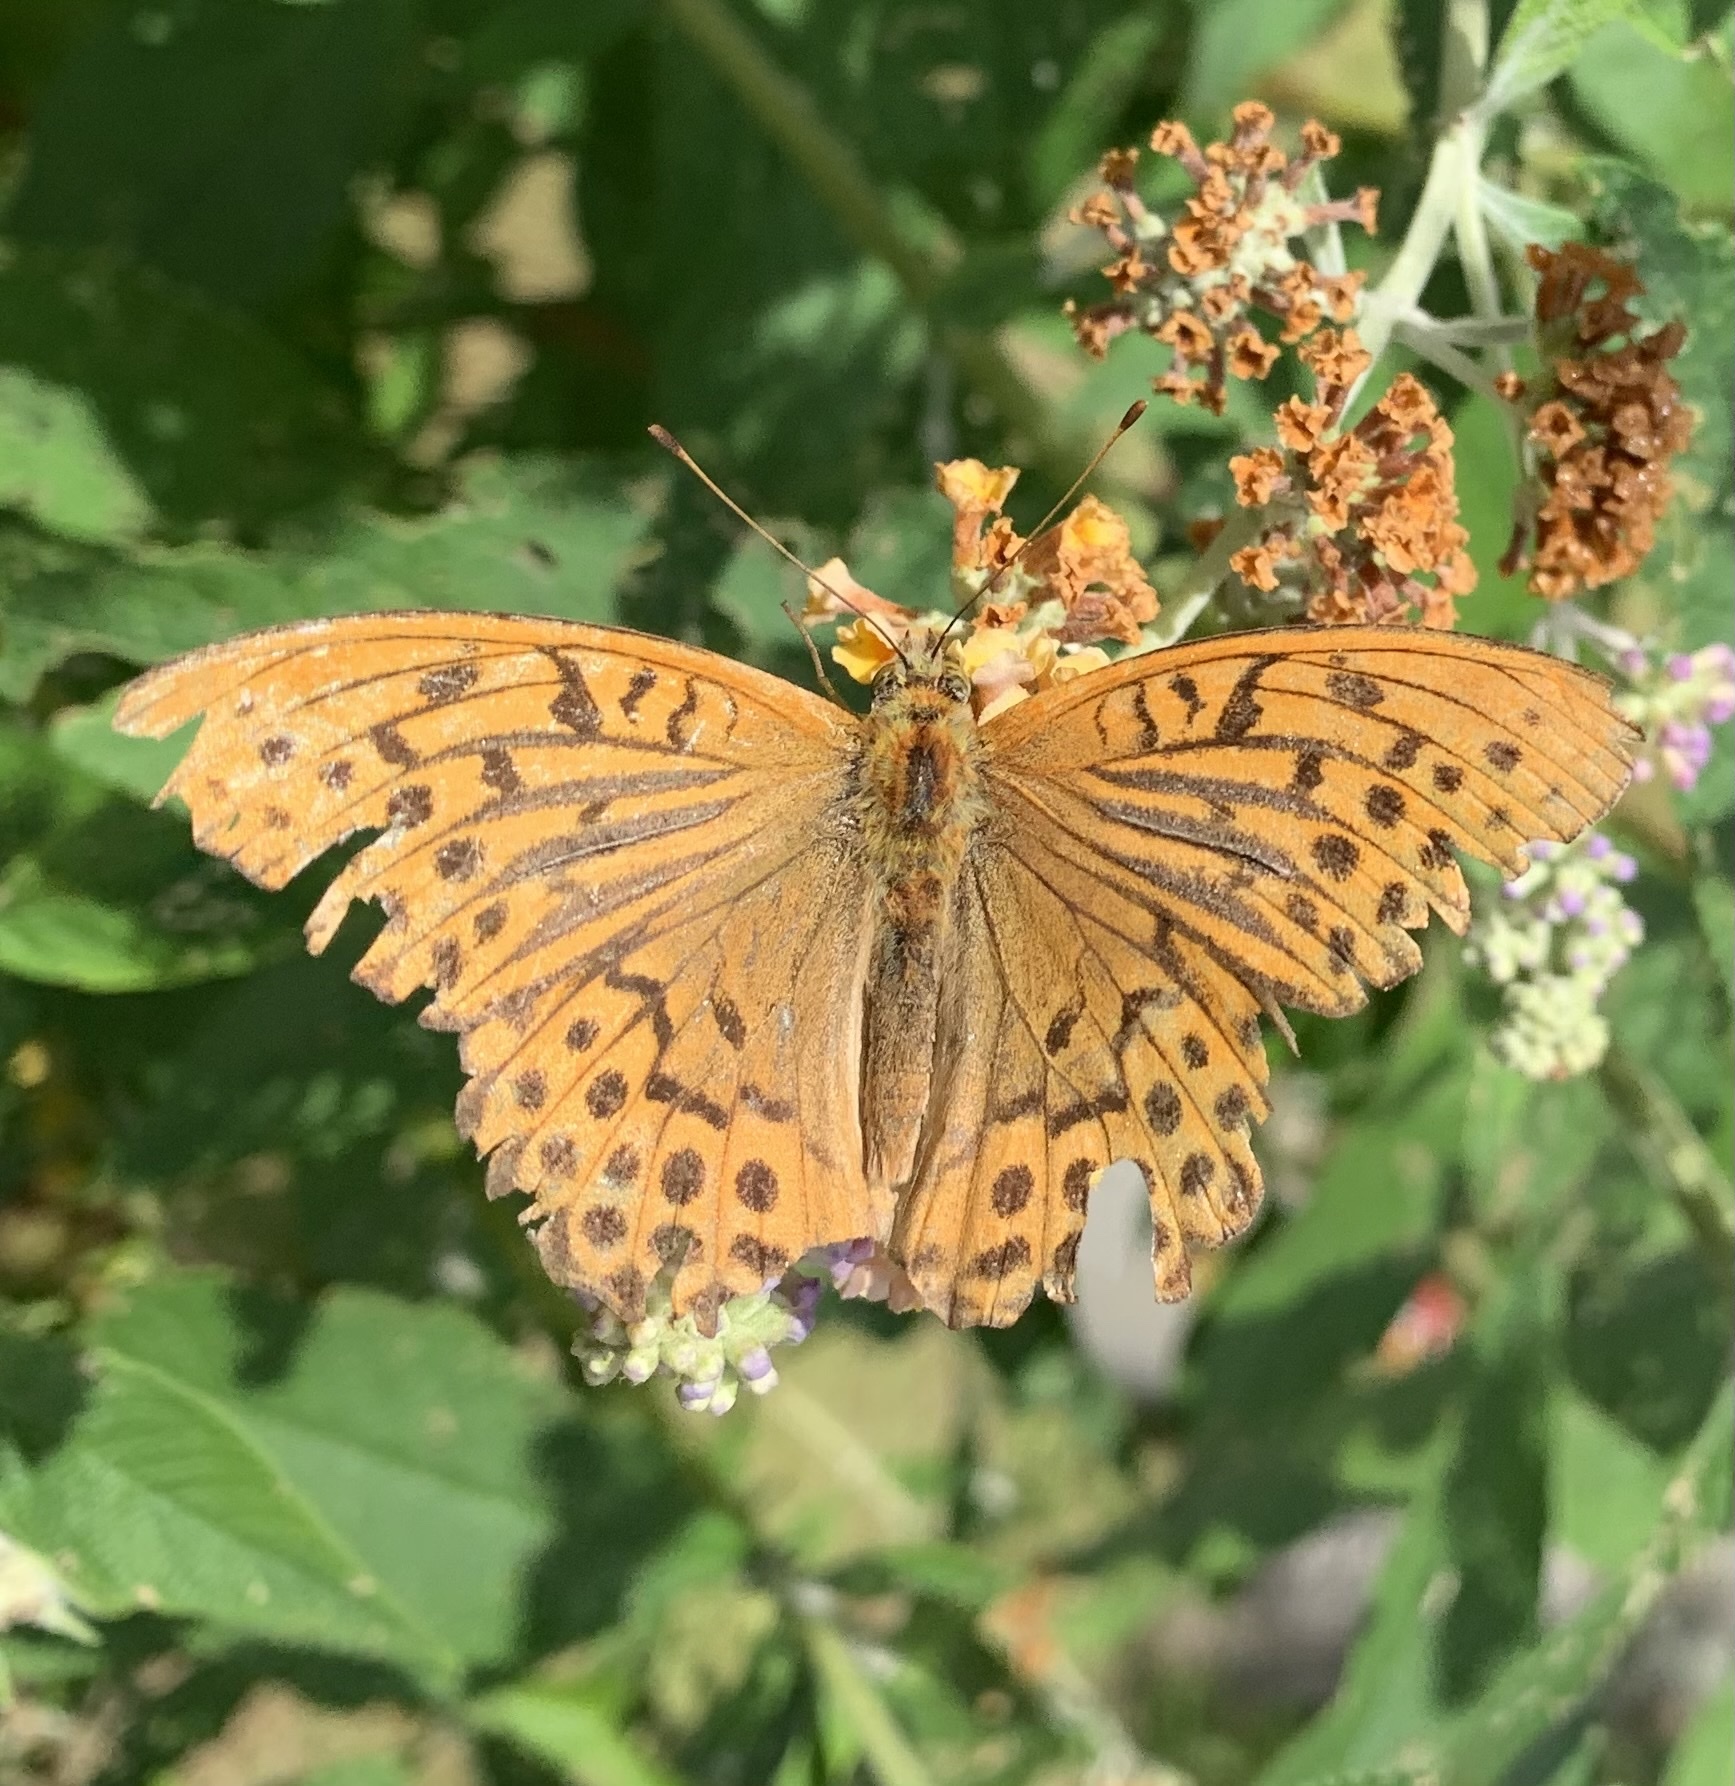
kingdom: Animalia
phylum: Arthropoda
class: Insecta
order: Lepidoptera
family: Nymphalidae
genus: Argynnis
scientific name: Argynnis paphia
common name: Silver-washed fritillary
